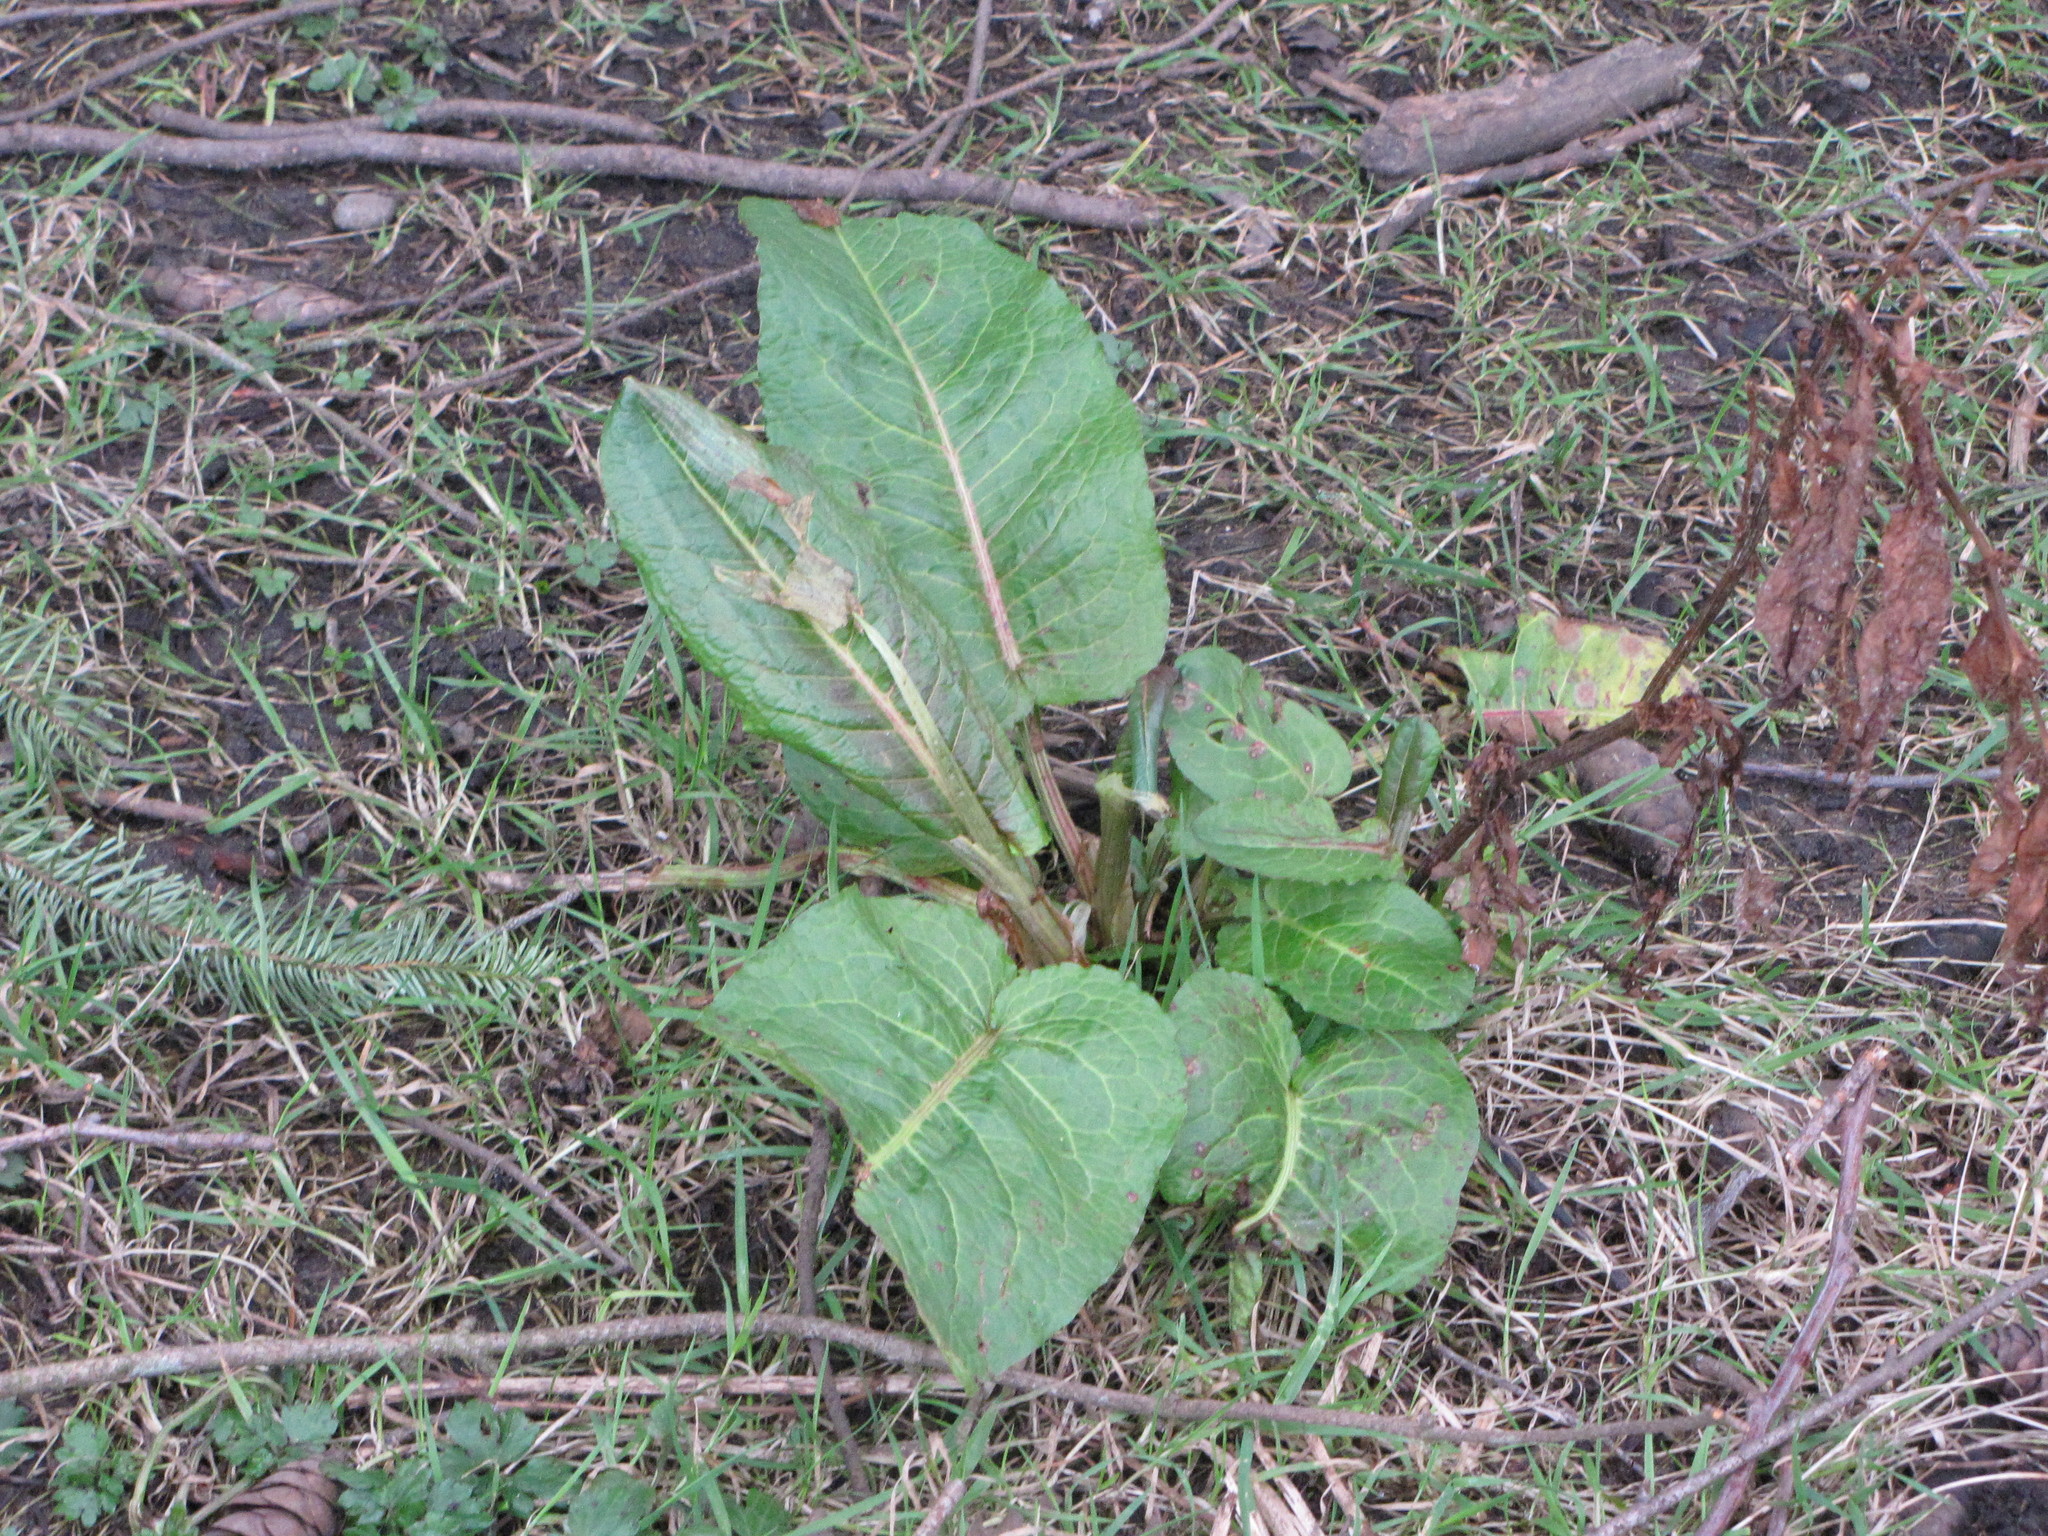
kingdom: Plantae
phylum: Tracheophyta
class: Magnoliopsida
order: Caryophyllales
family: Polygonaceae
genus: Rumex
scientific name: Rumex obtusifolius
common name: Bitter dock
